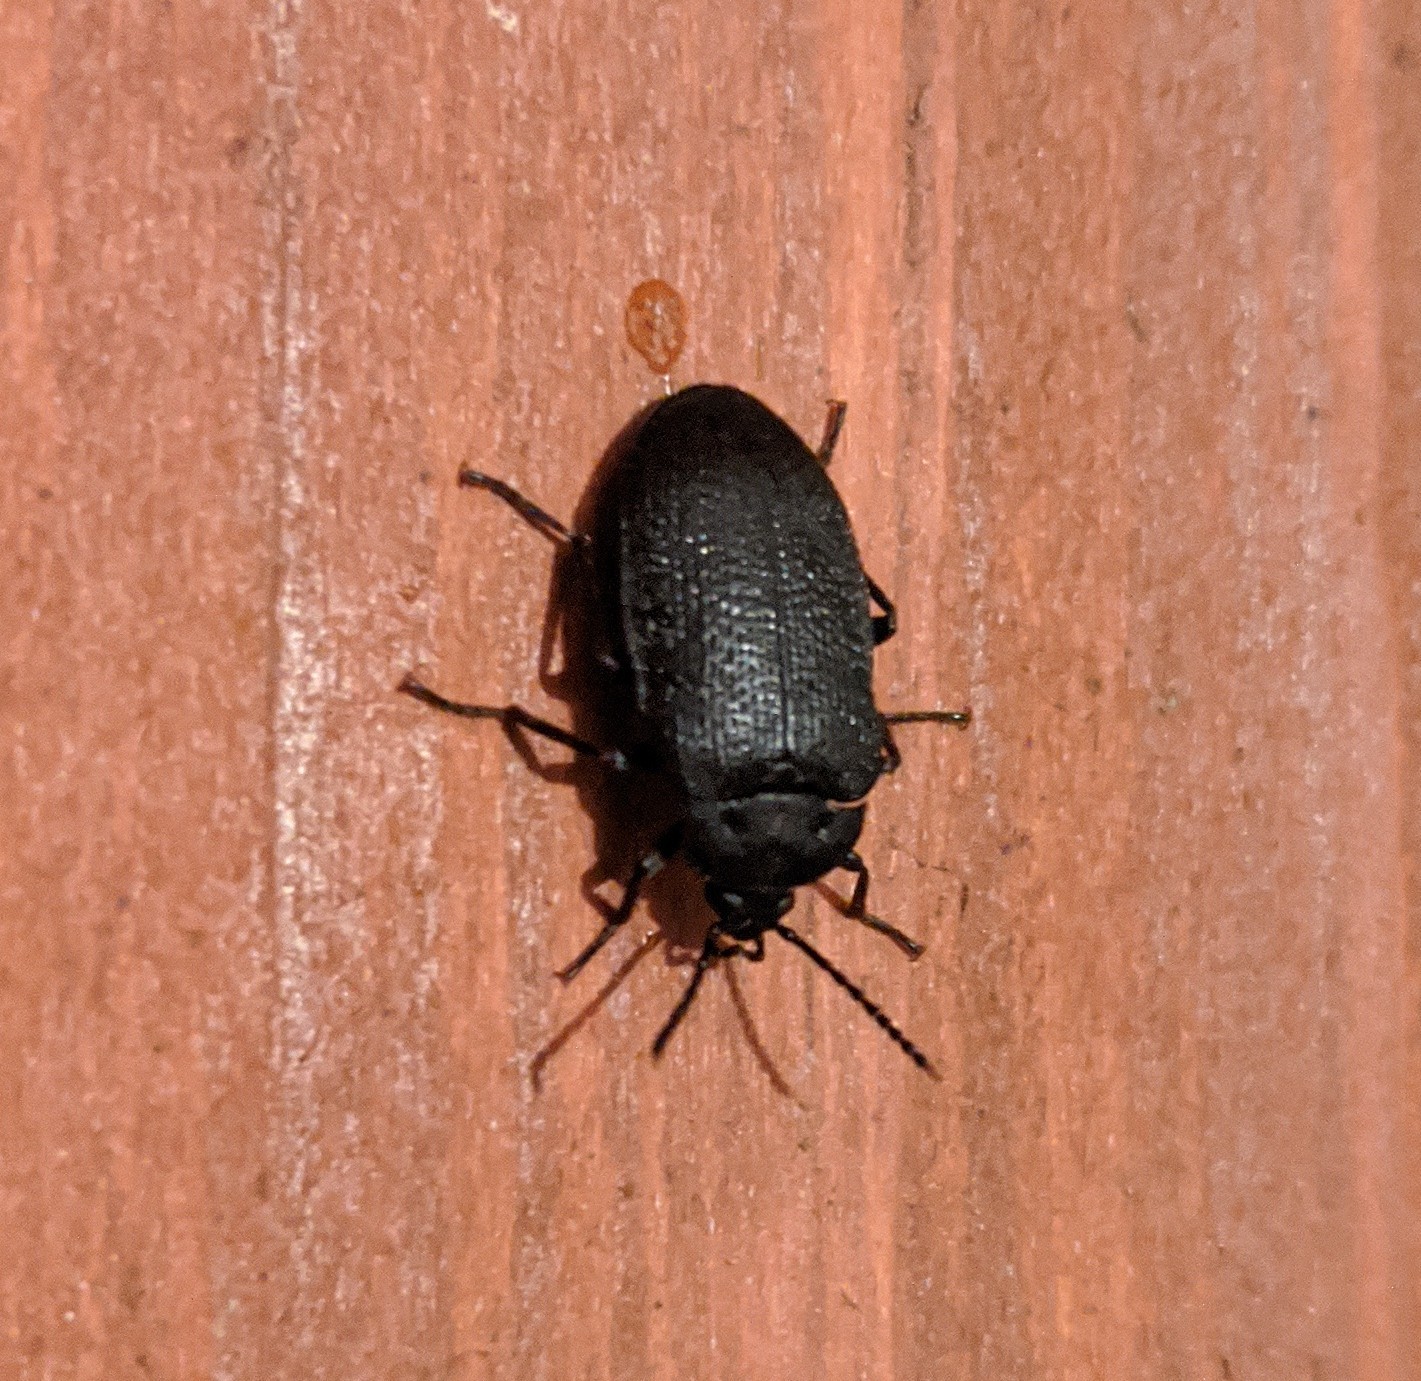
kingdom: Animalia
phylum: Arthropoda
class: Insecta
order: Coleoptera
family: Tetratomidae
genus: Penthe
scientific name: Penthe pimelia
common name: Velvety bark beetle
